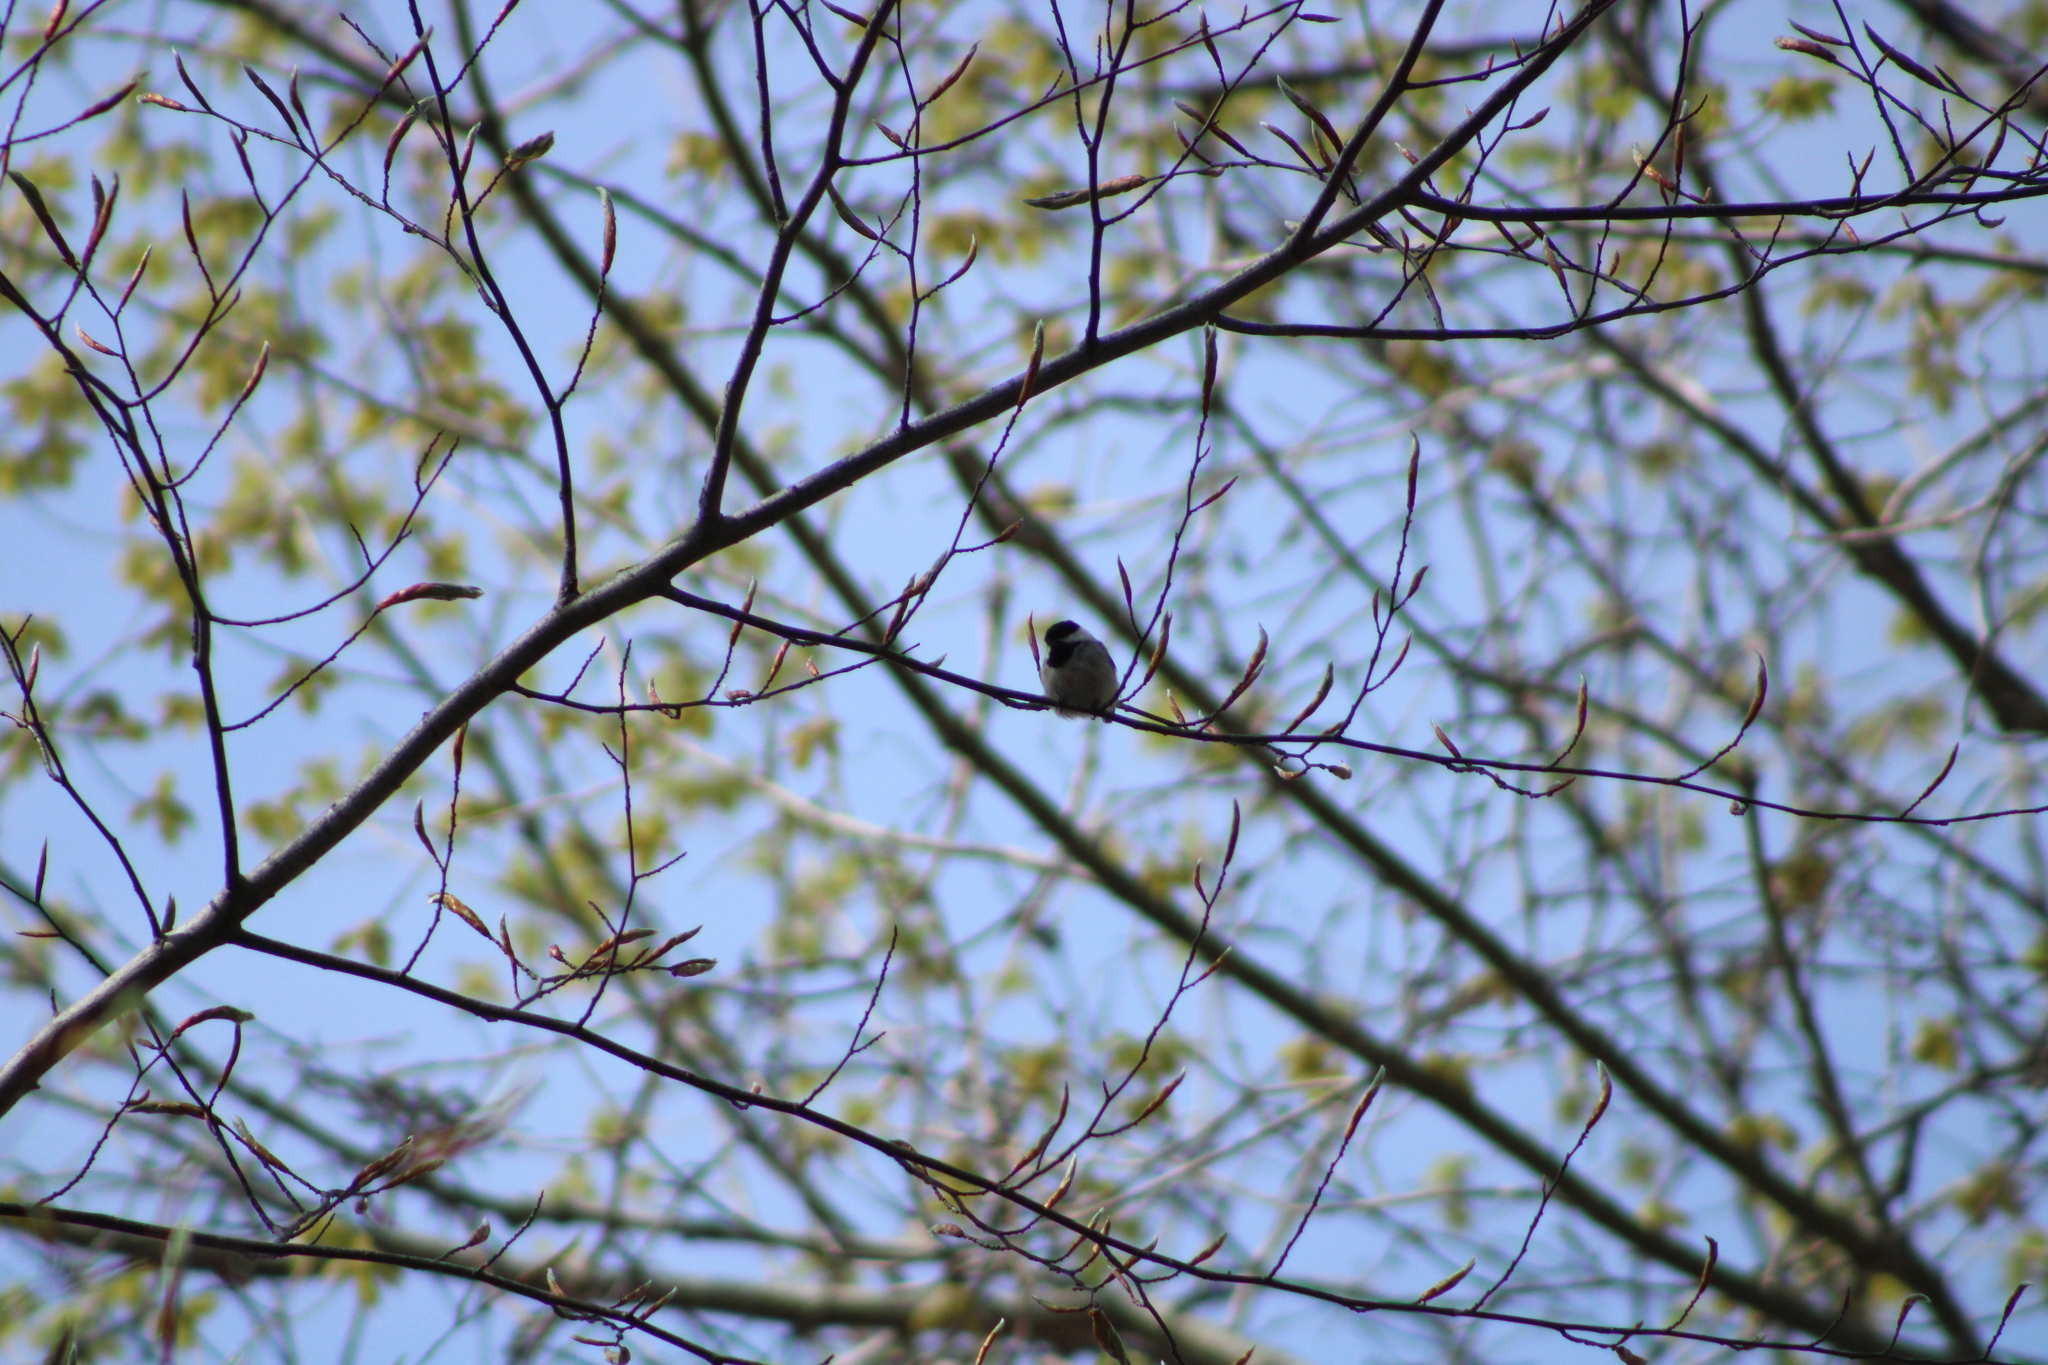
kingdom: Animalia
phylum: Chordata
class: Aves
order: Passeriformes
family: Paridae
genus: Poecile
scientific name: Poecile atricapillus
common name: Black-capped chickadee
